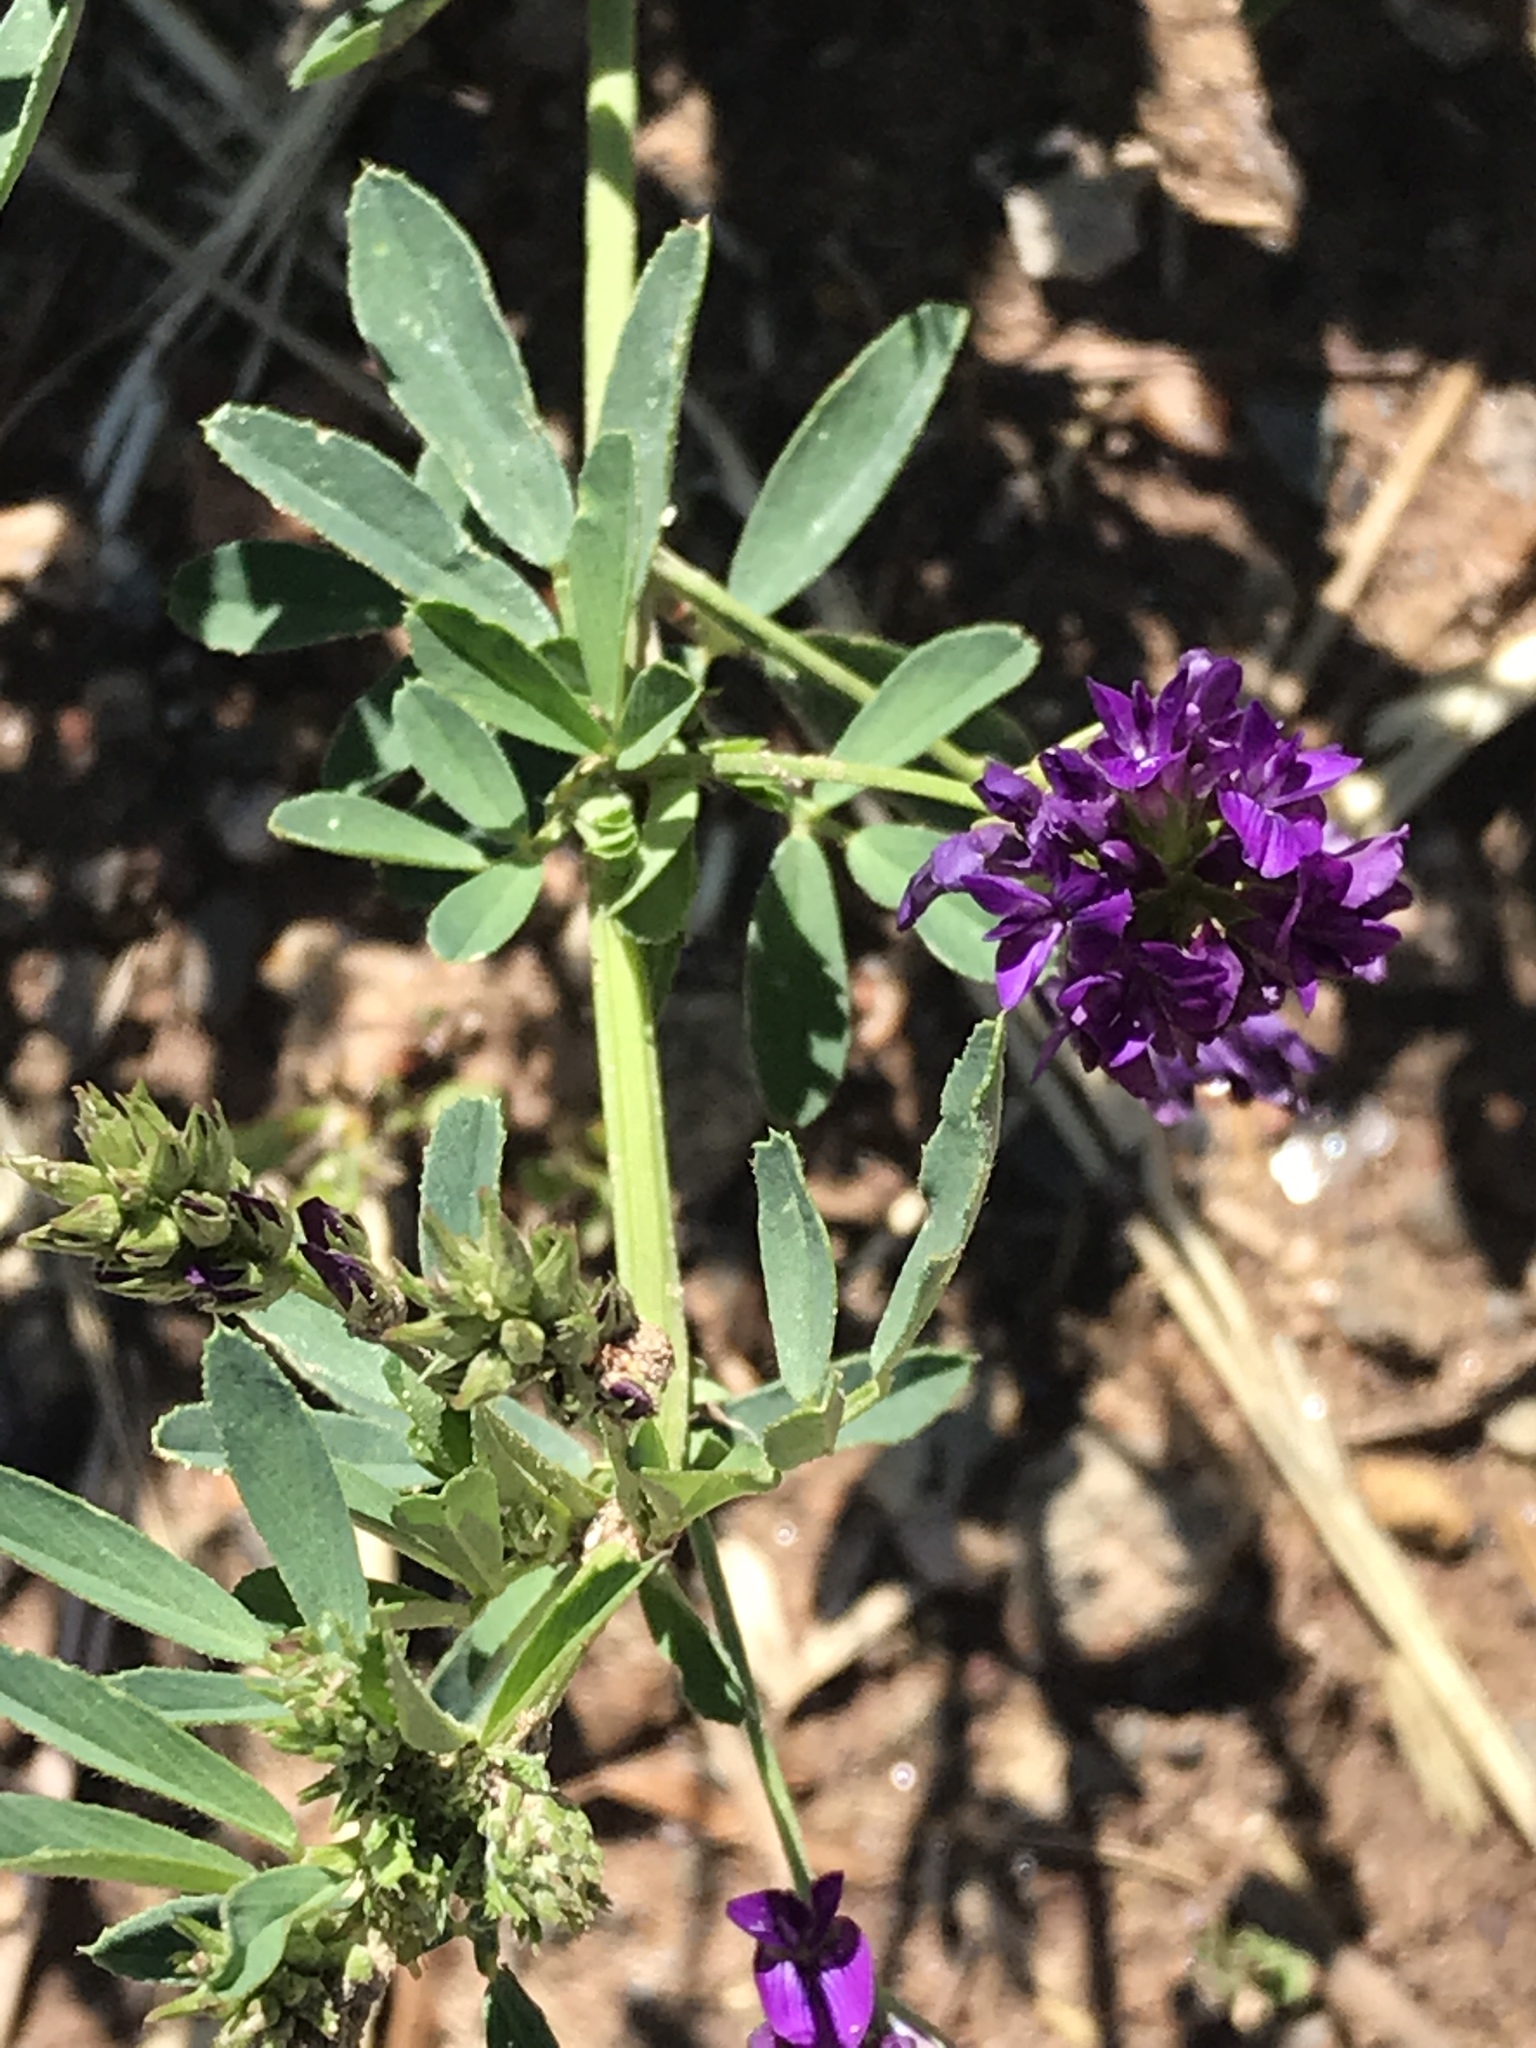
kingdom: Plantae
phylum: Tracheophyta
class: Magnoliopsida
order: Fabales
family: Fabaceae
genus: Medicago
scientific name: Medicago sativa
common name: Alfalfa
